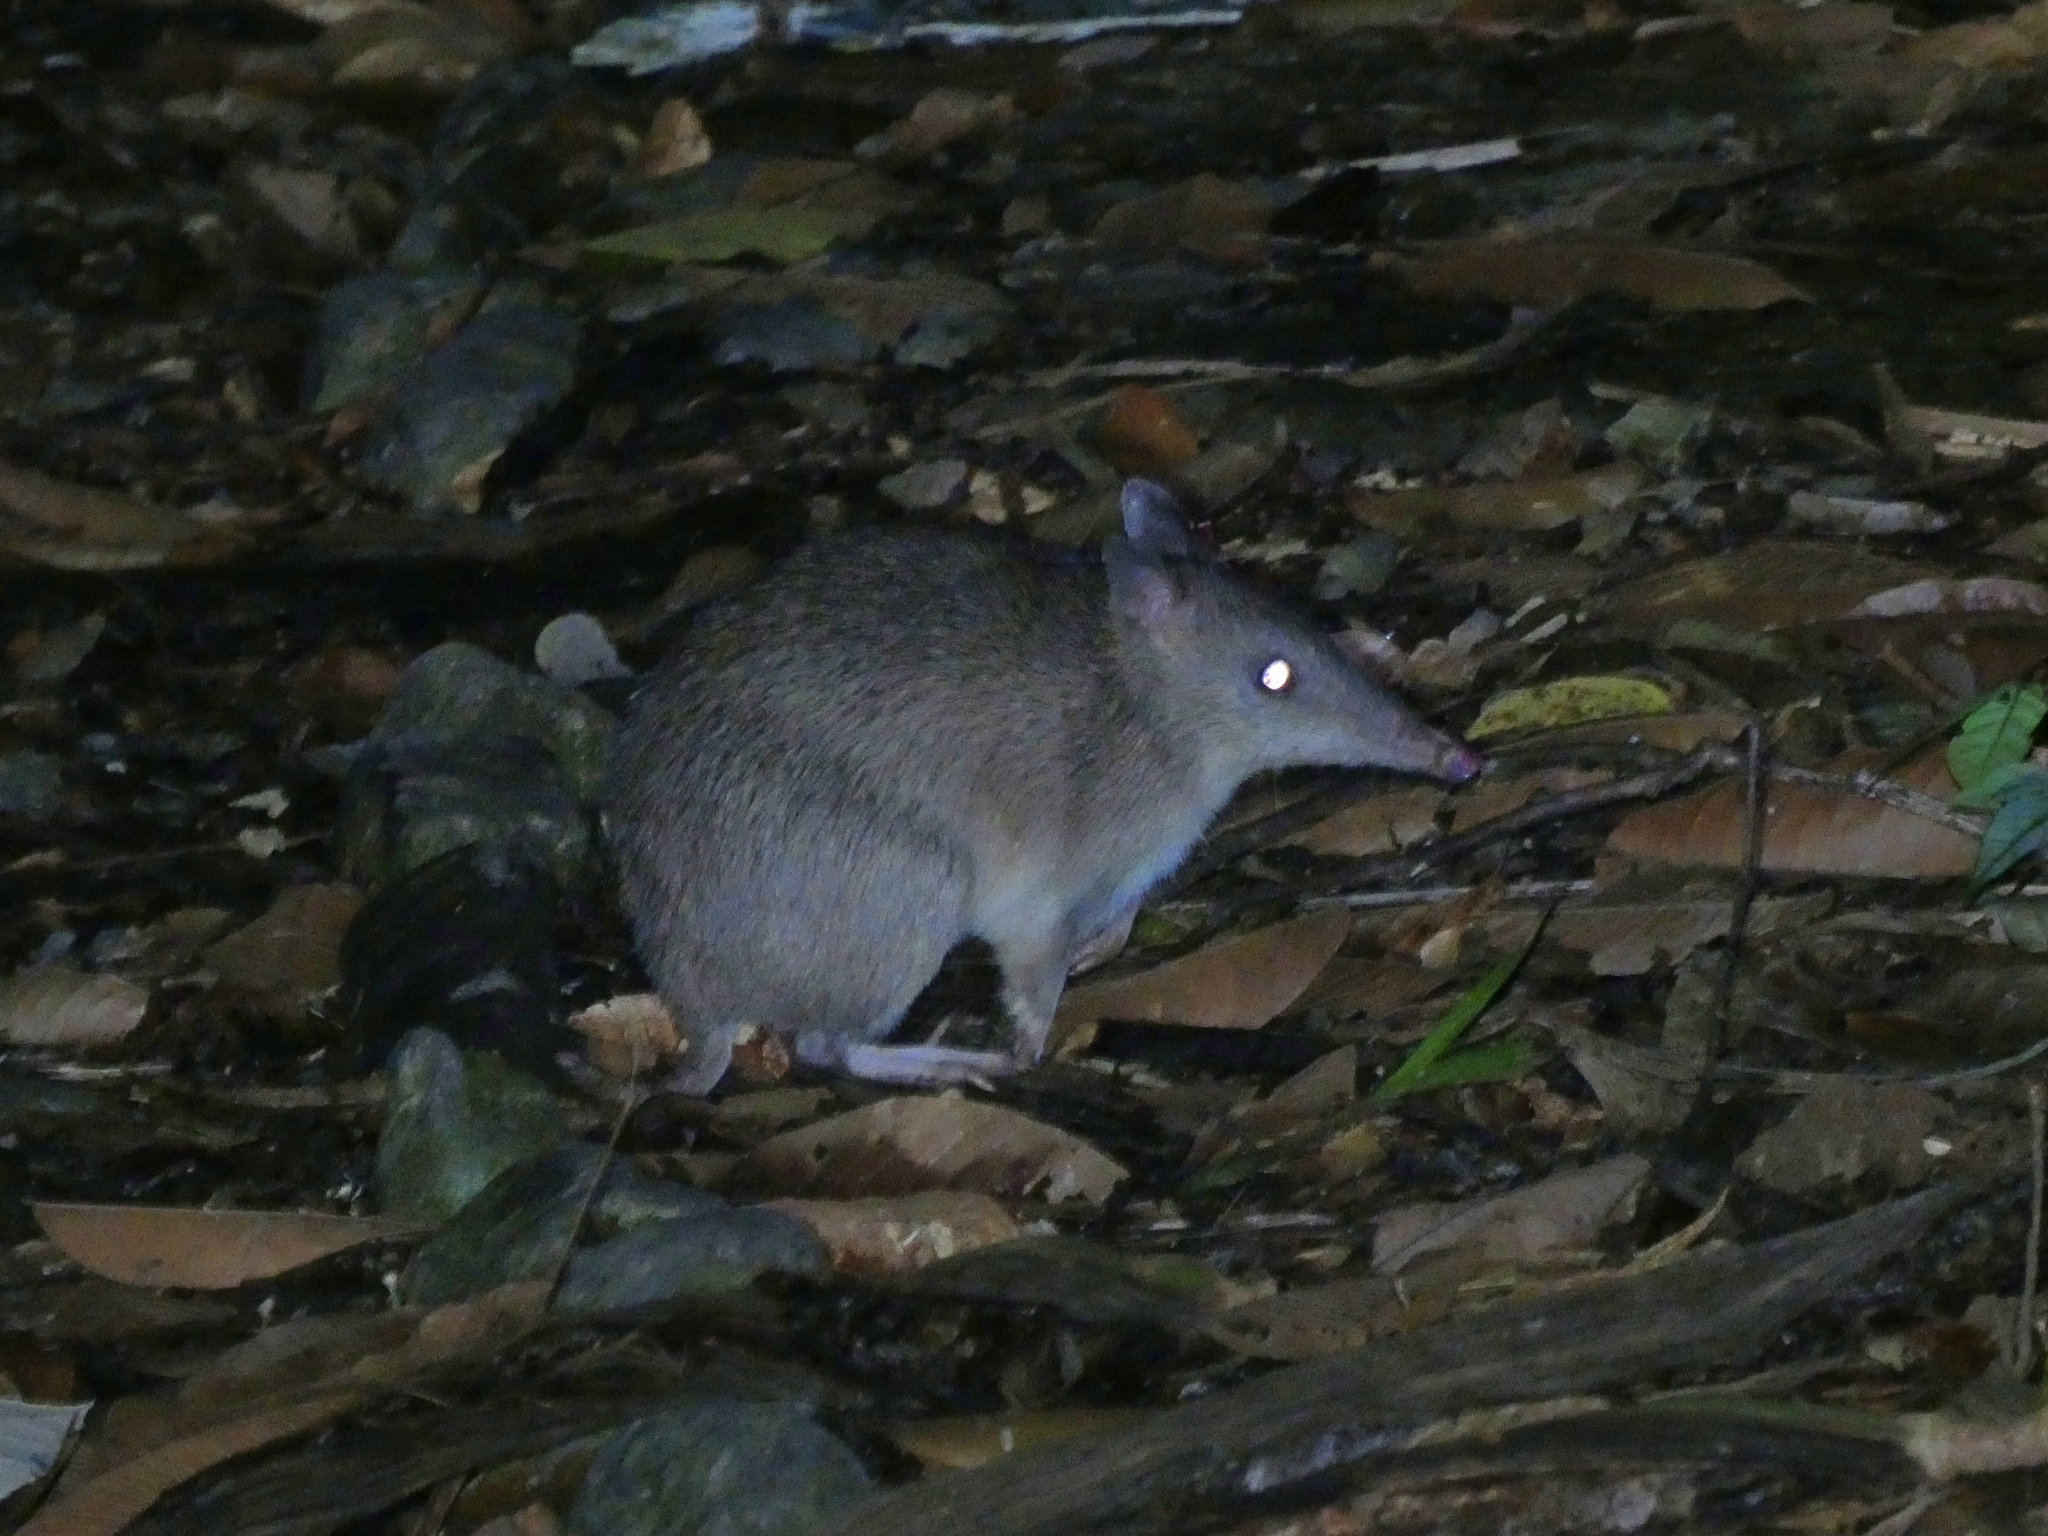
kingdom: Animalia
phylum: Chordata
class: Mammalia
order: Peramelemorphia
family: Peramelidae
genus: Perameles
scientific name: Perameles pallescens
